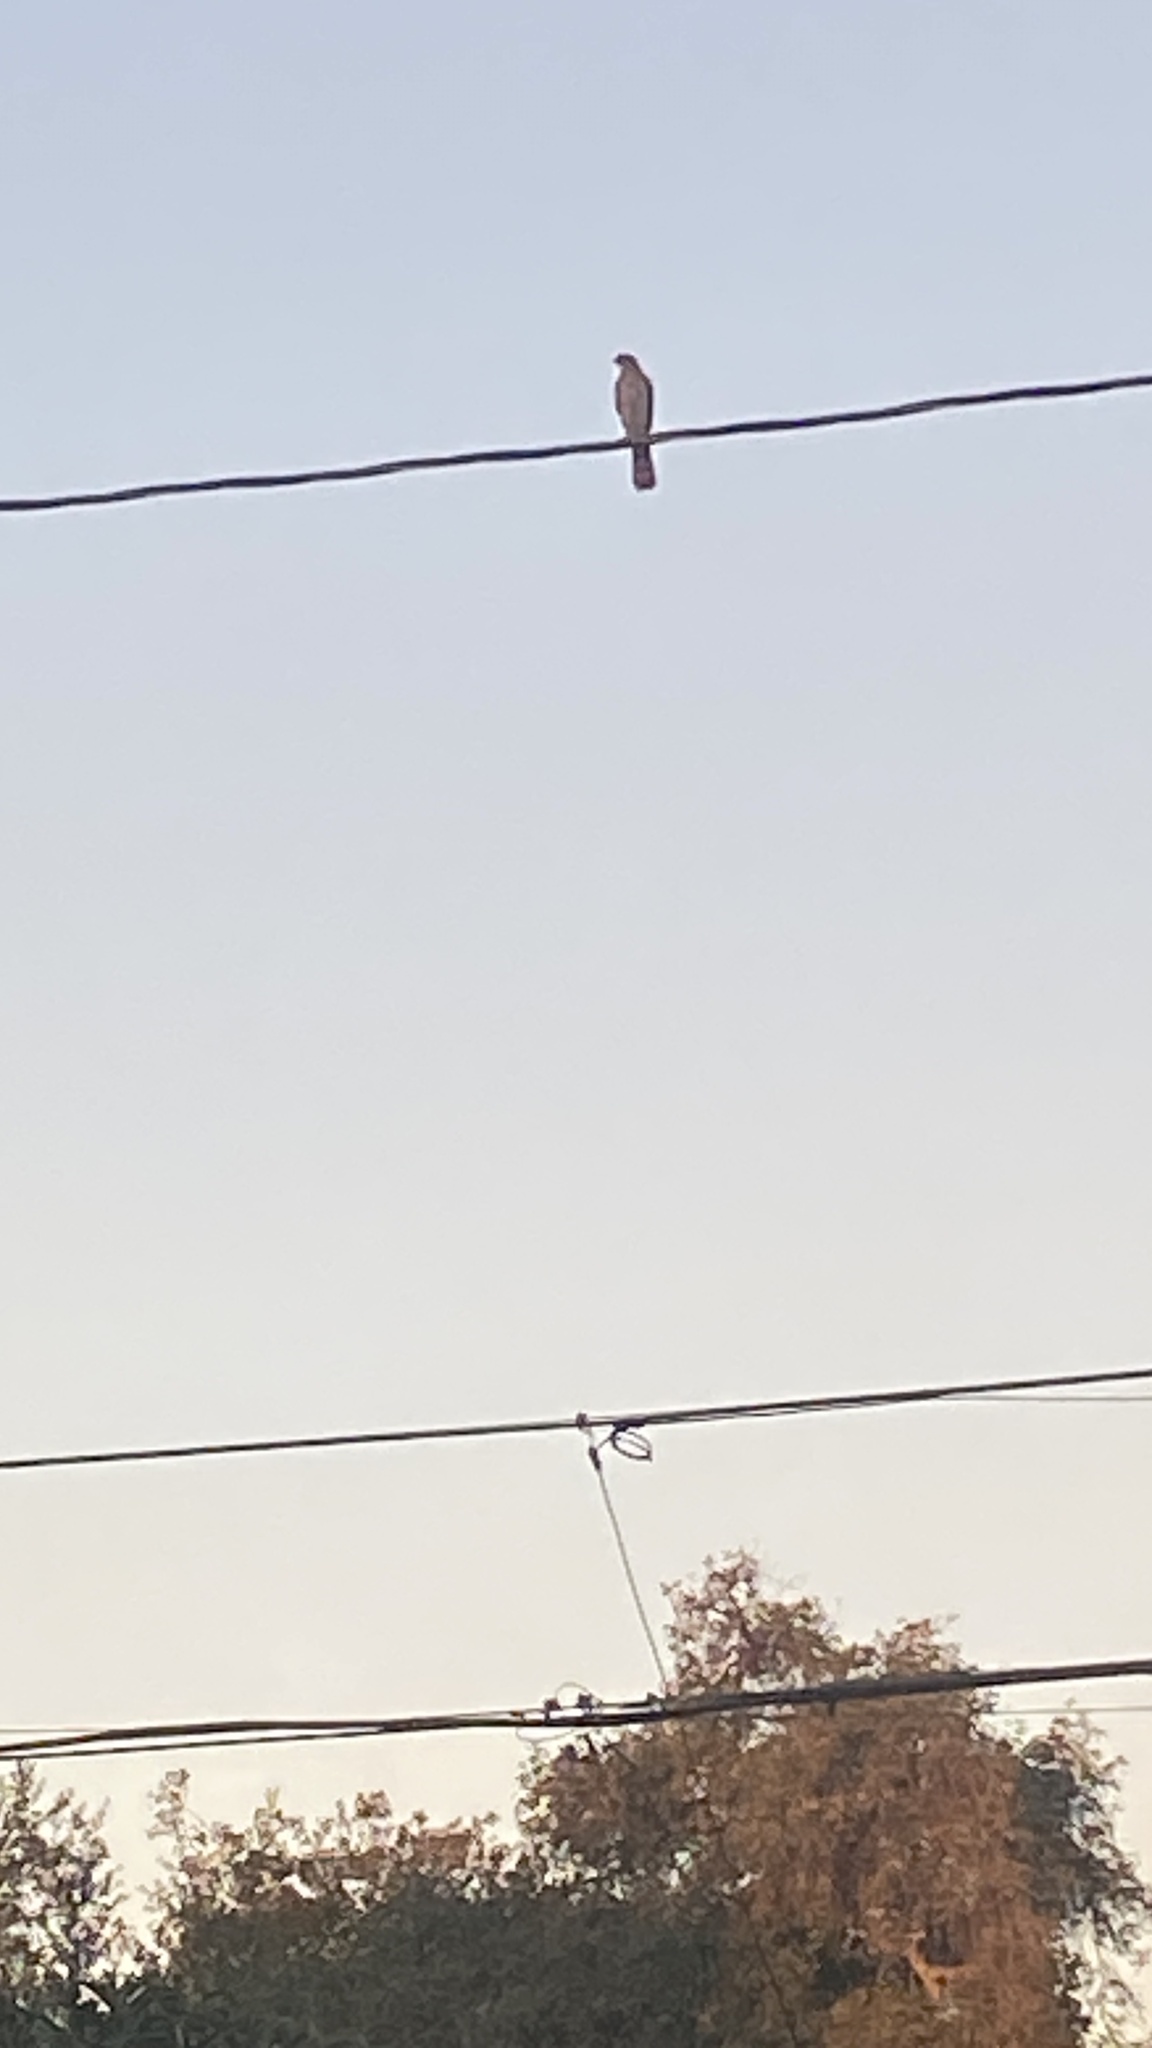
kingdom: Animalia
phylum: Chordata
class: Aves
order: Accipitriformes
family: Accipitridae
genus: Accipiter
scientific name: Accipiter cooperii
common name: Cooper's hawk
